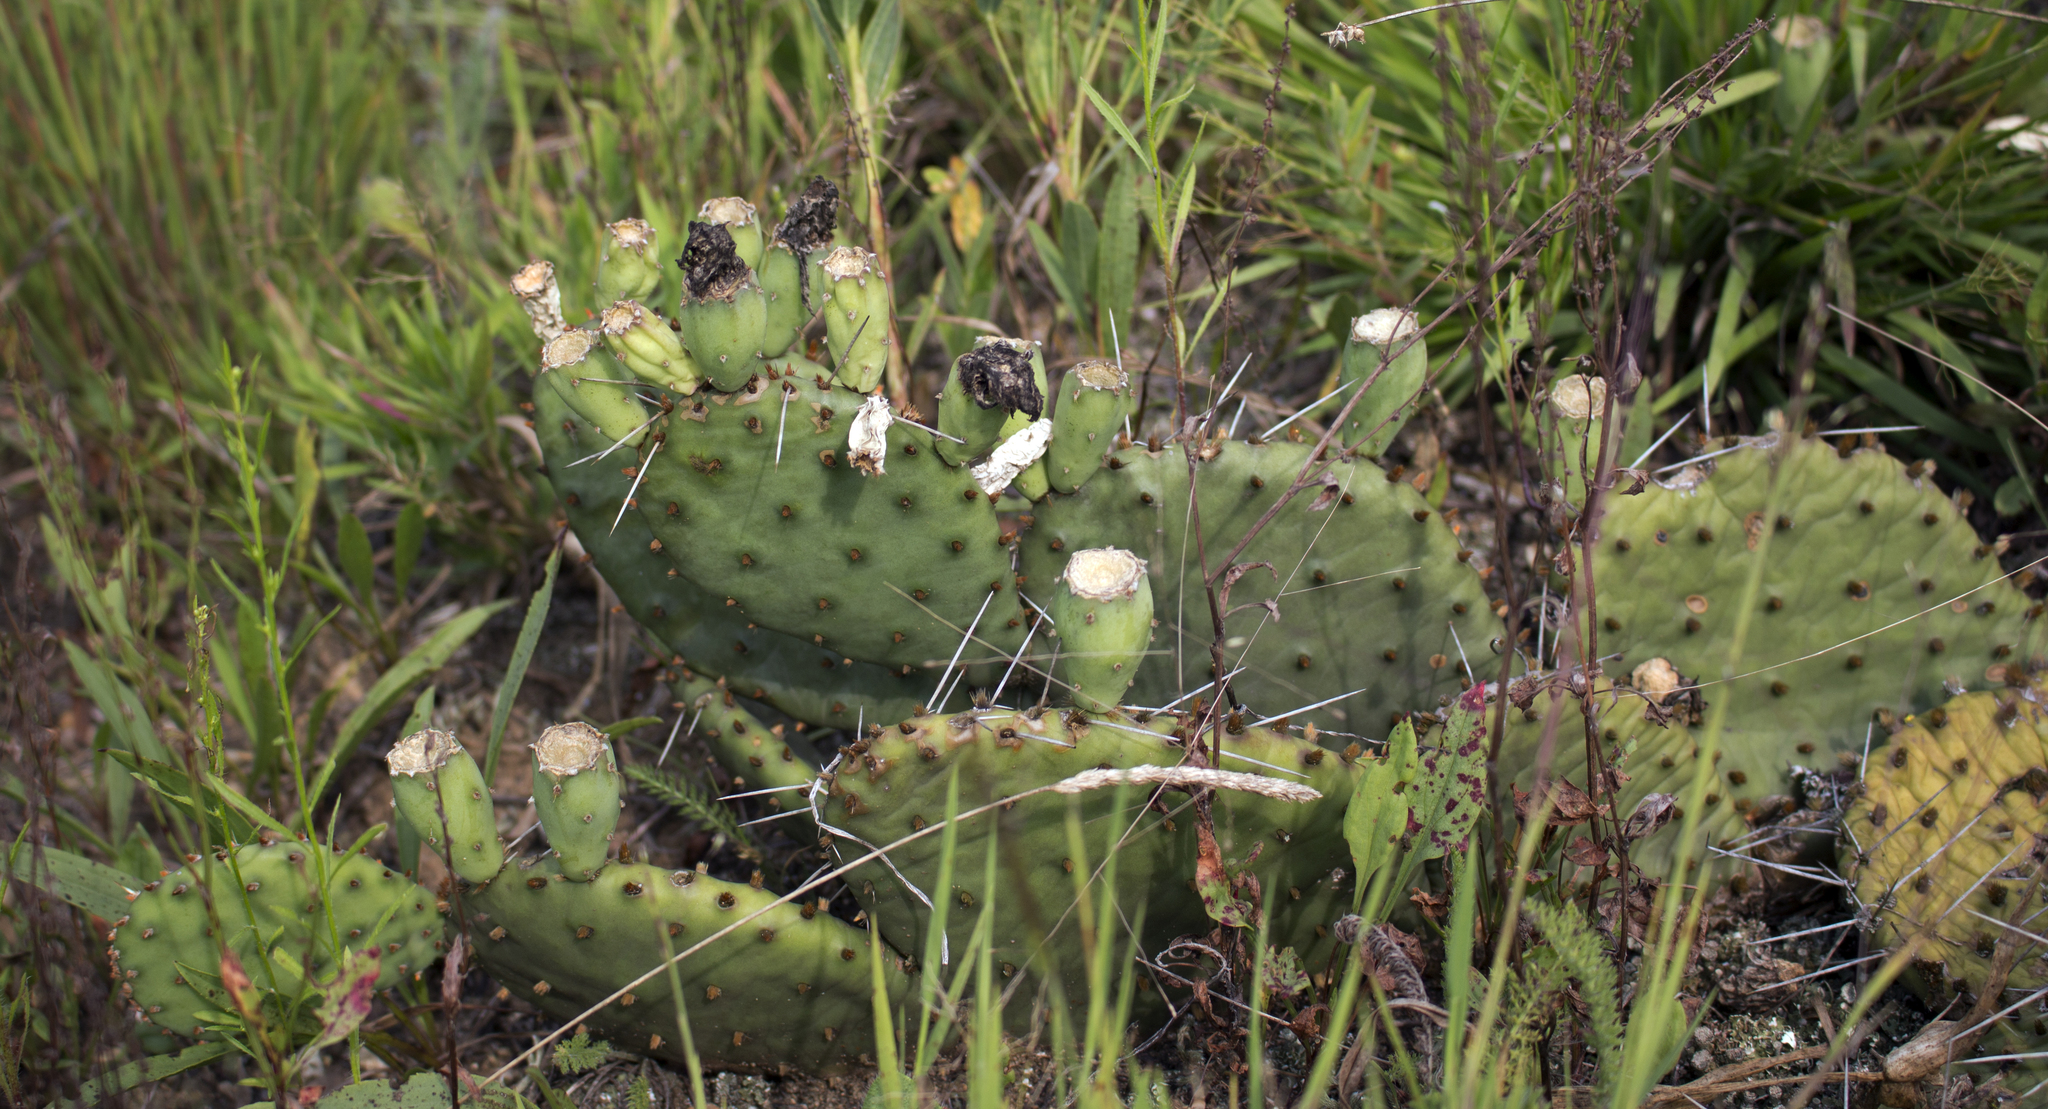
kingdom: Plantae
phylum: Tracheophyta
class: Magnoliopsida
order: Caryophyllales
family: Cactaceae
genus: Opuntia
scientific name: Opuntia humifusa
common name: Eastern prickly-pear
